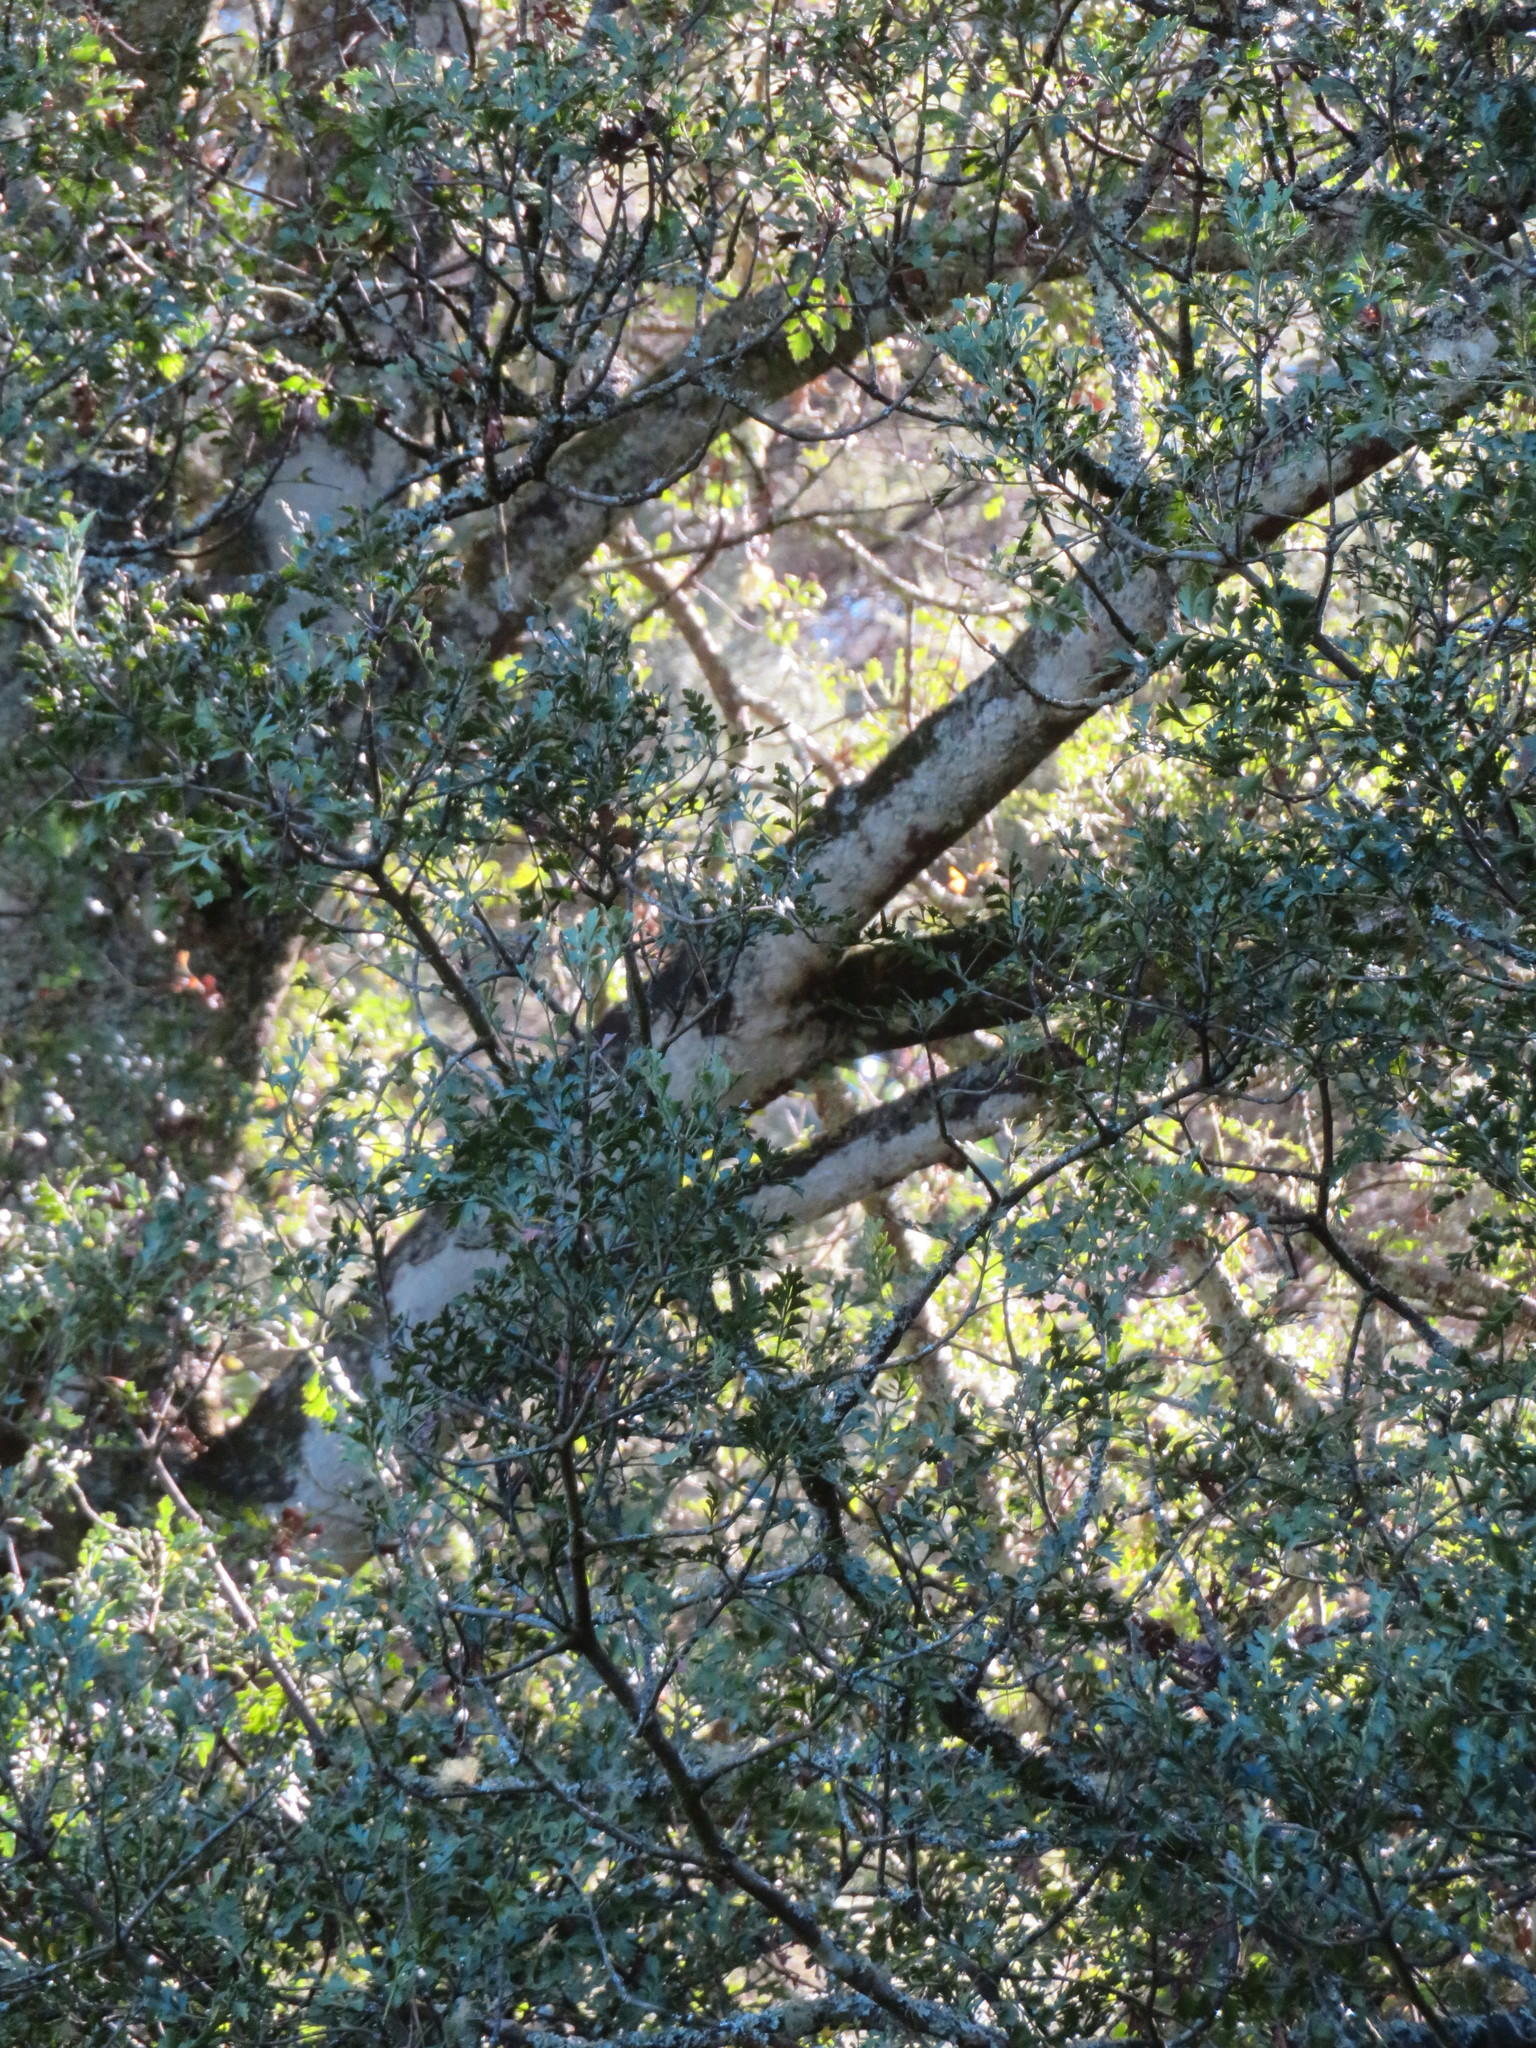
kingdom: Plantae
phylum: Tracheophyta
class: Pinopsida
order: Pinales
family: Phyllocladaceae
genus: Phyllocladus
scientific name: Phyllocladus trichomanoides
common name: Celery pine
